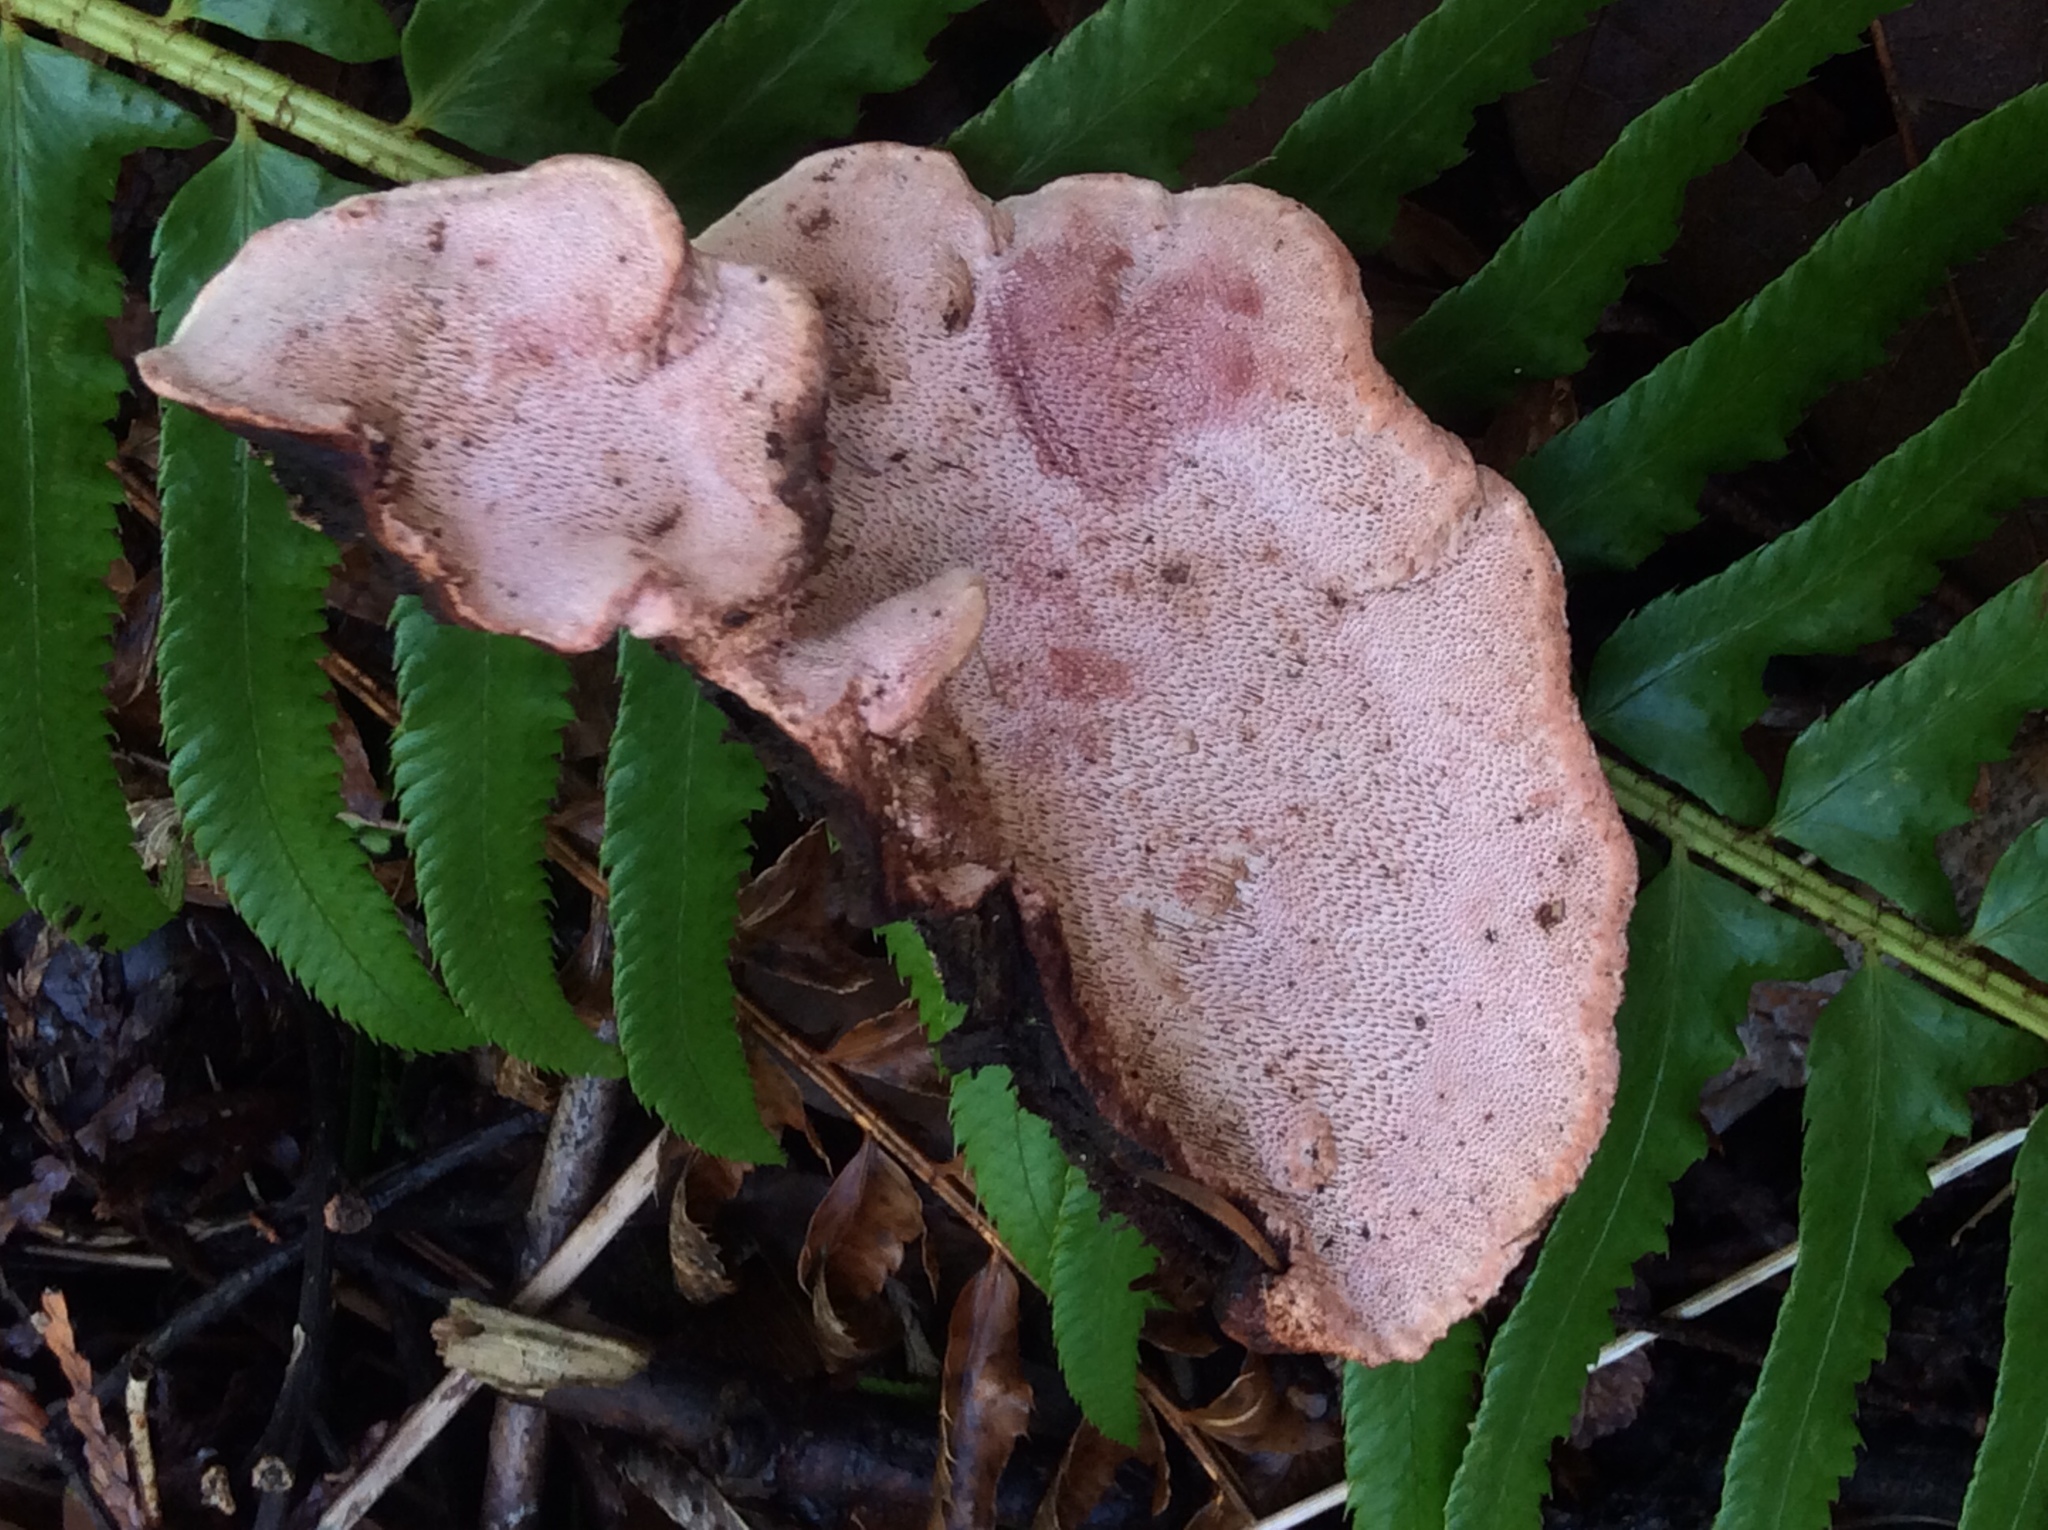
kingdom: Fungi
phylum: Basidiomycota
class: Agaricomycetes
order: Polyporales
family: Fomitopsidaceae
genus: Rhodofomes
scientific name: Rhodofomes cajanderi
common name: Rosy conk
